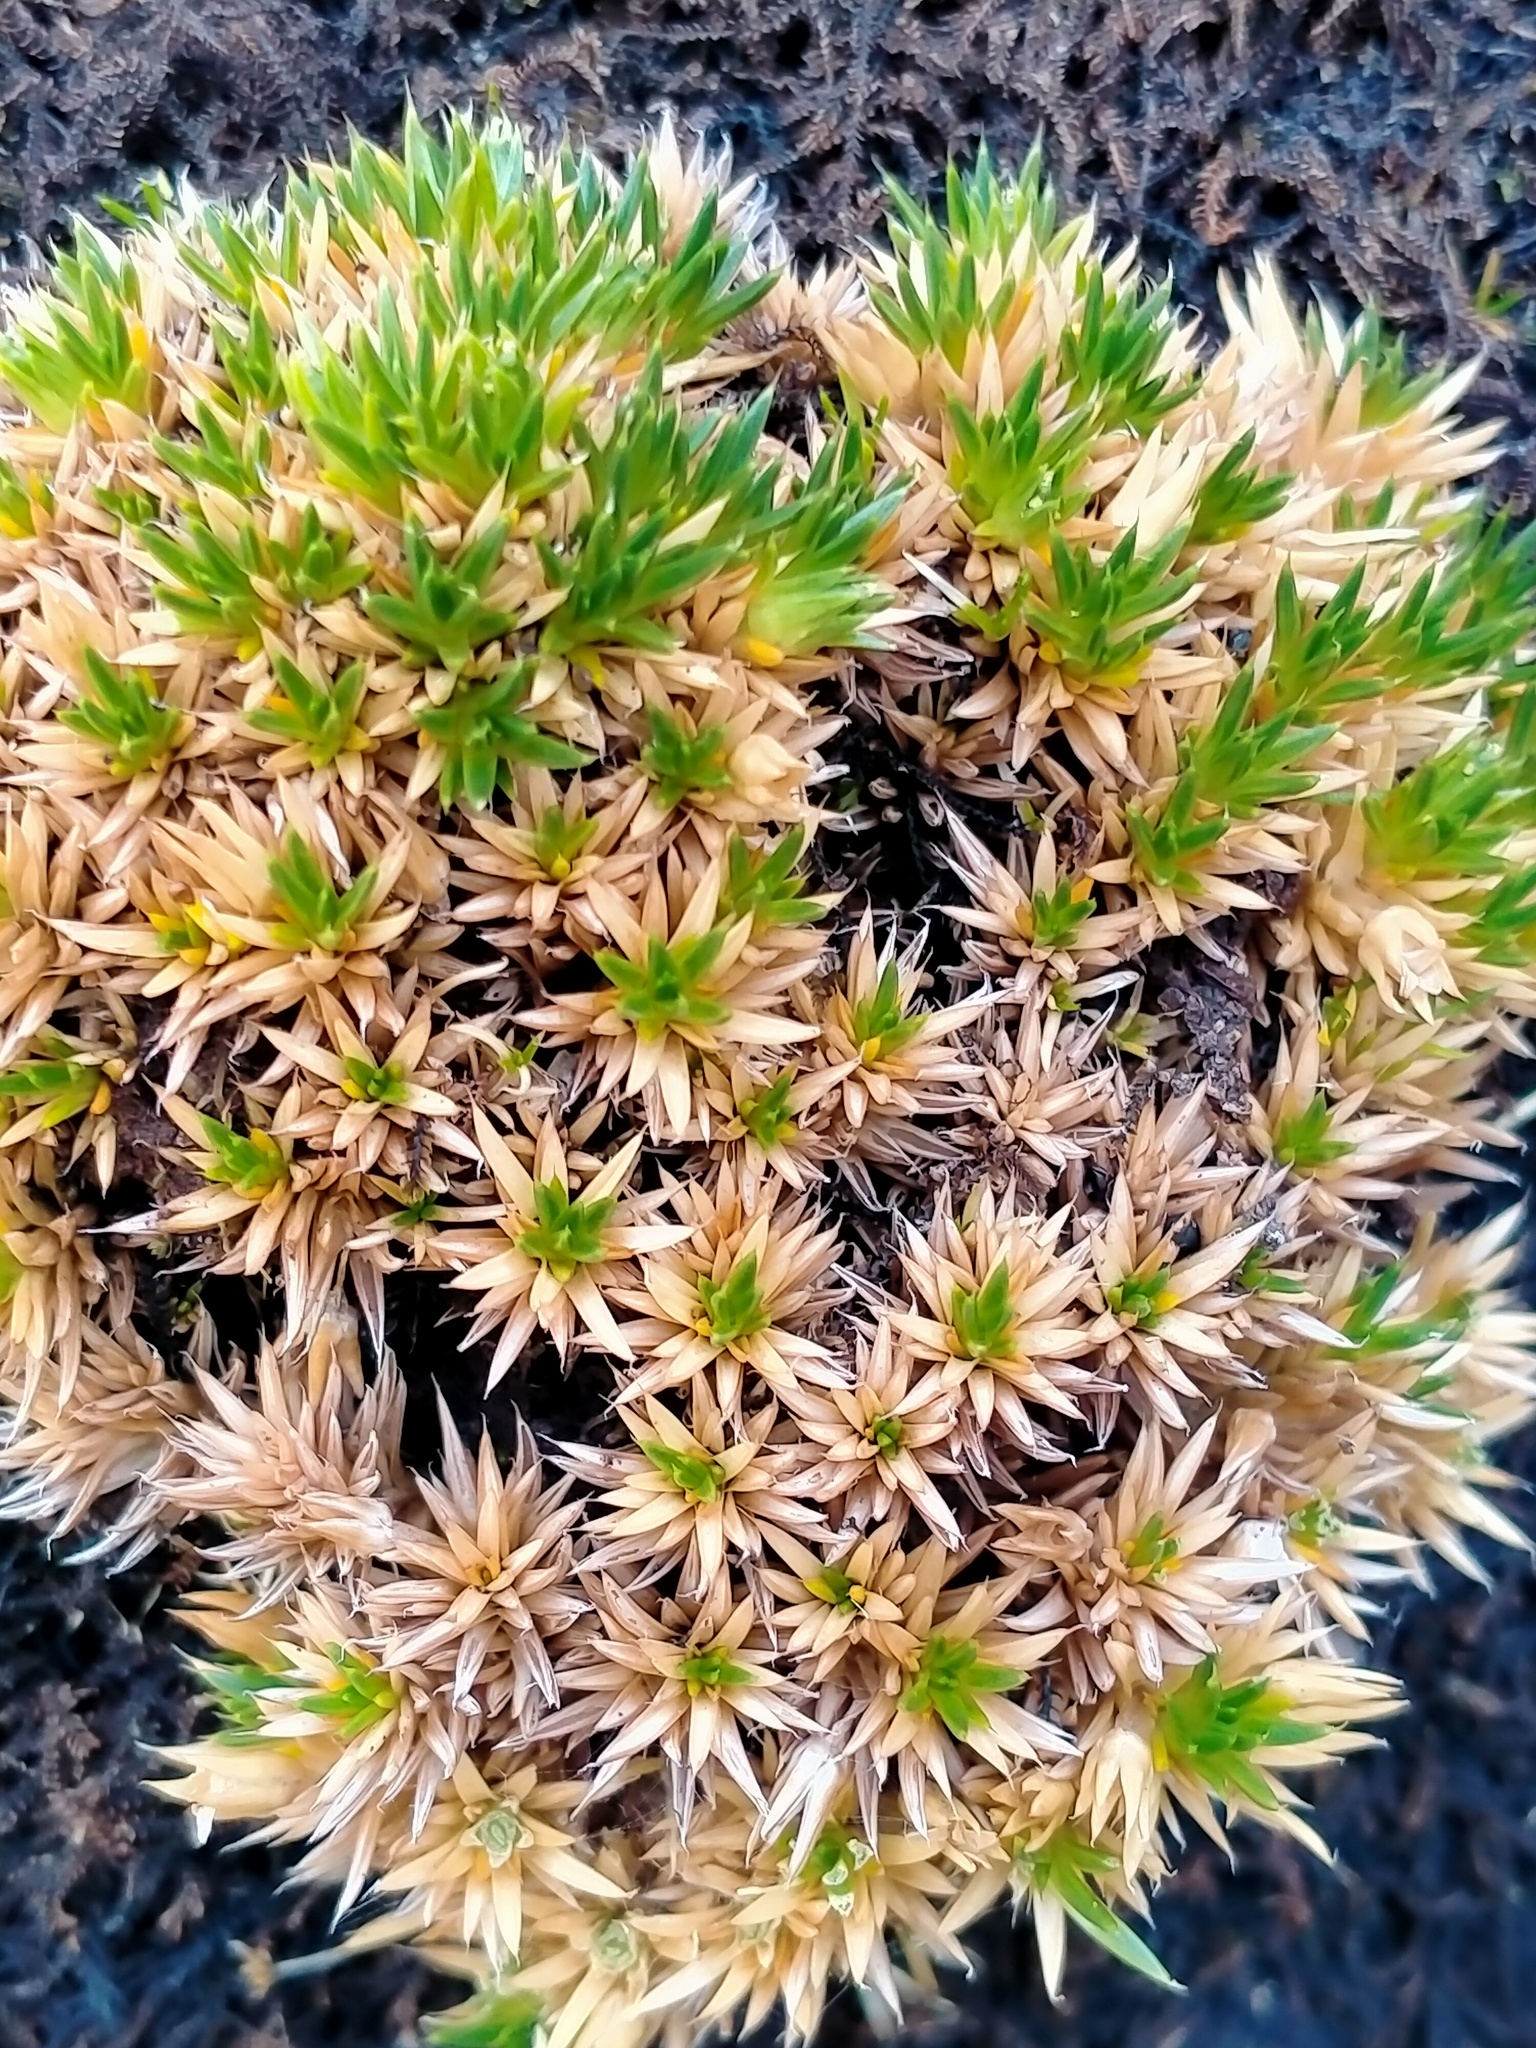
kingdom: Plantae
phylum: Tracheophyta
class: Magnoliopsida
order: Caryophyllales
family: Caryophyllaceae
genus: Colobanthus
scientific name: Colobanthus hookeri
